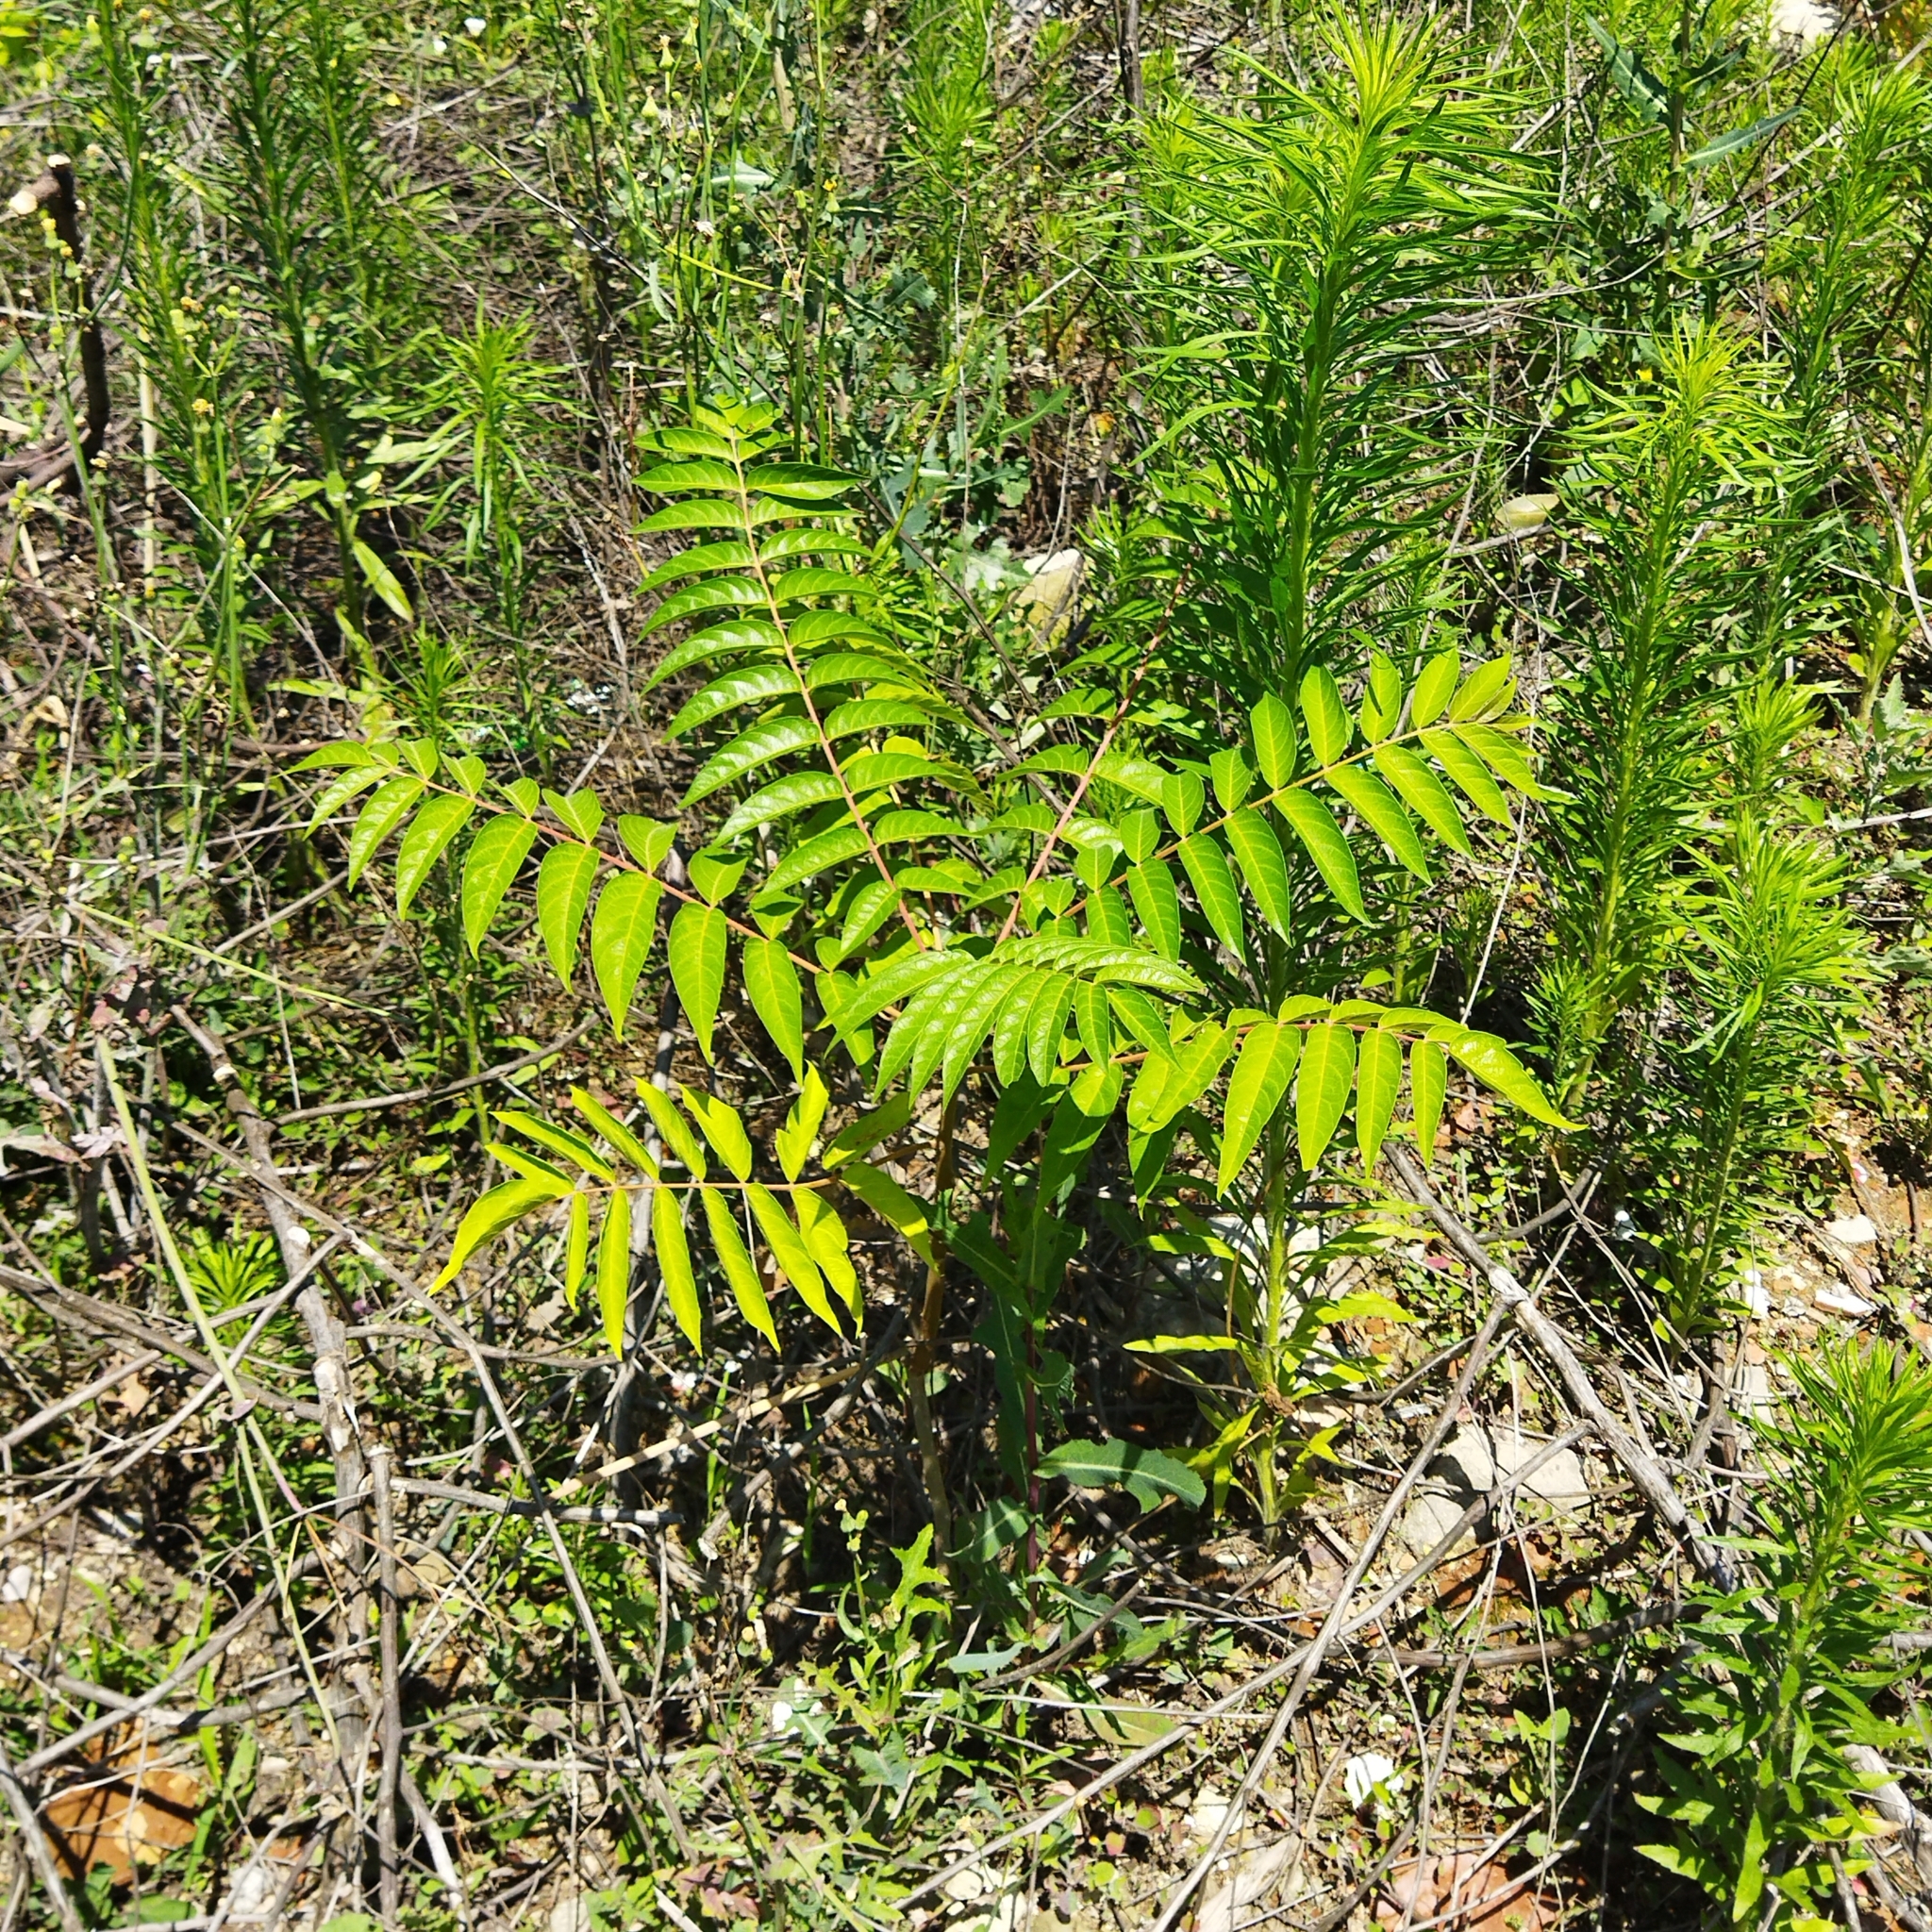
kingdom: Plantae
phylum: Tracheophyta
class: Magnoliopsida
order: Sapindales
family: Simaroubaceae
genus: Ailanthus
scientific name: Ailanthus altissima
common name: Tree-of-heaven
